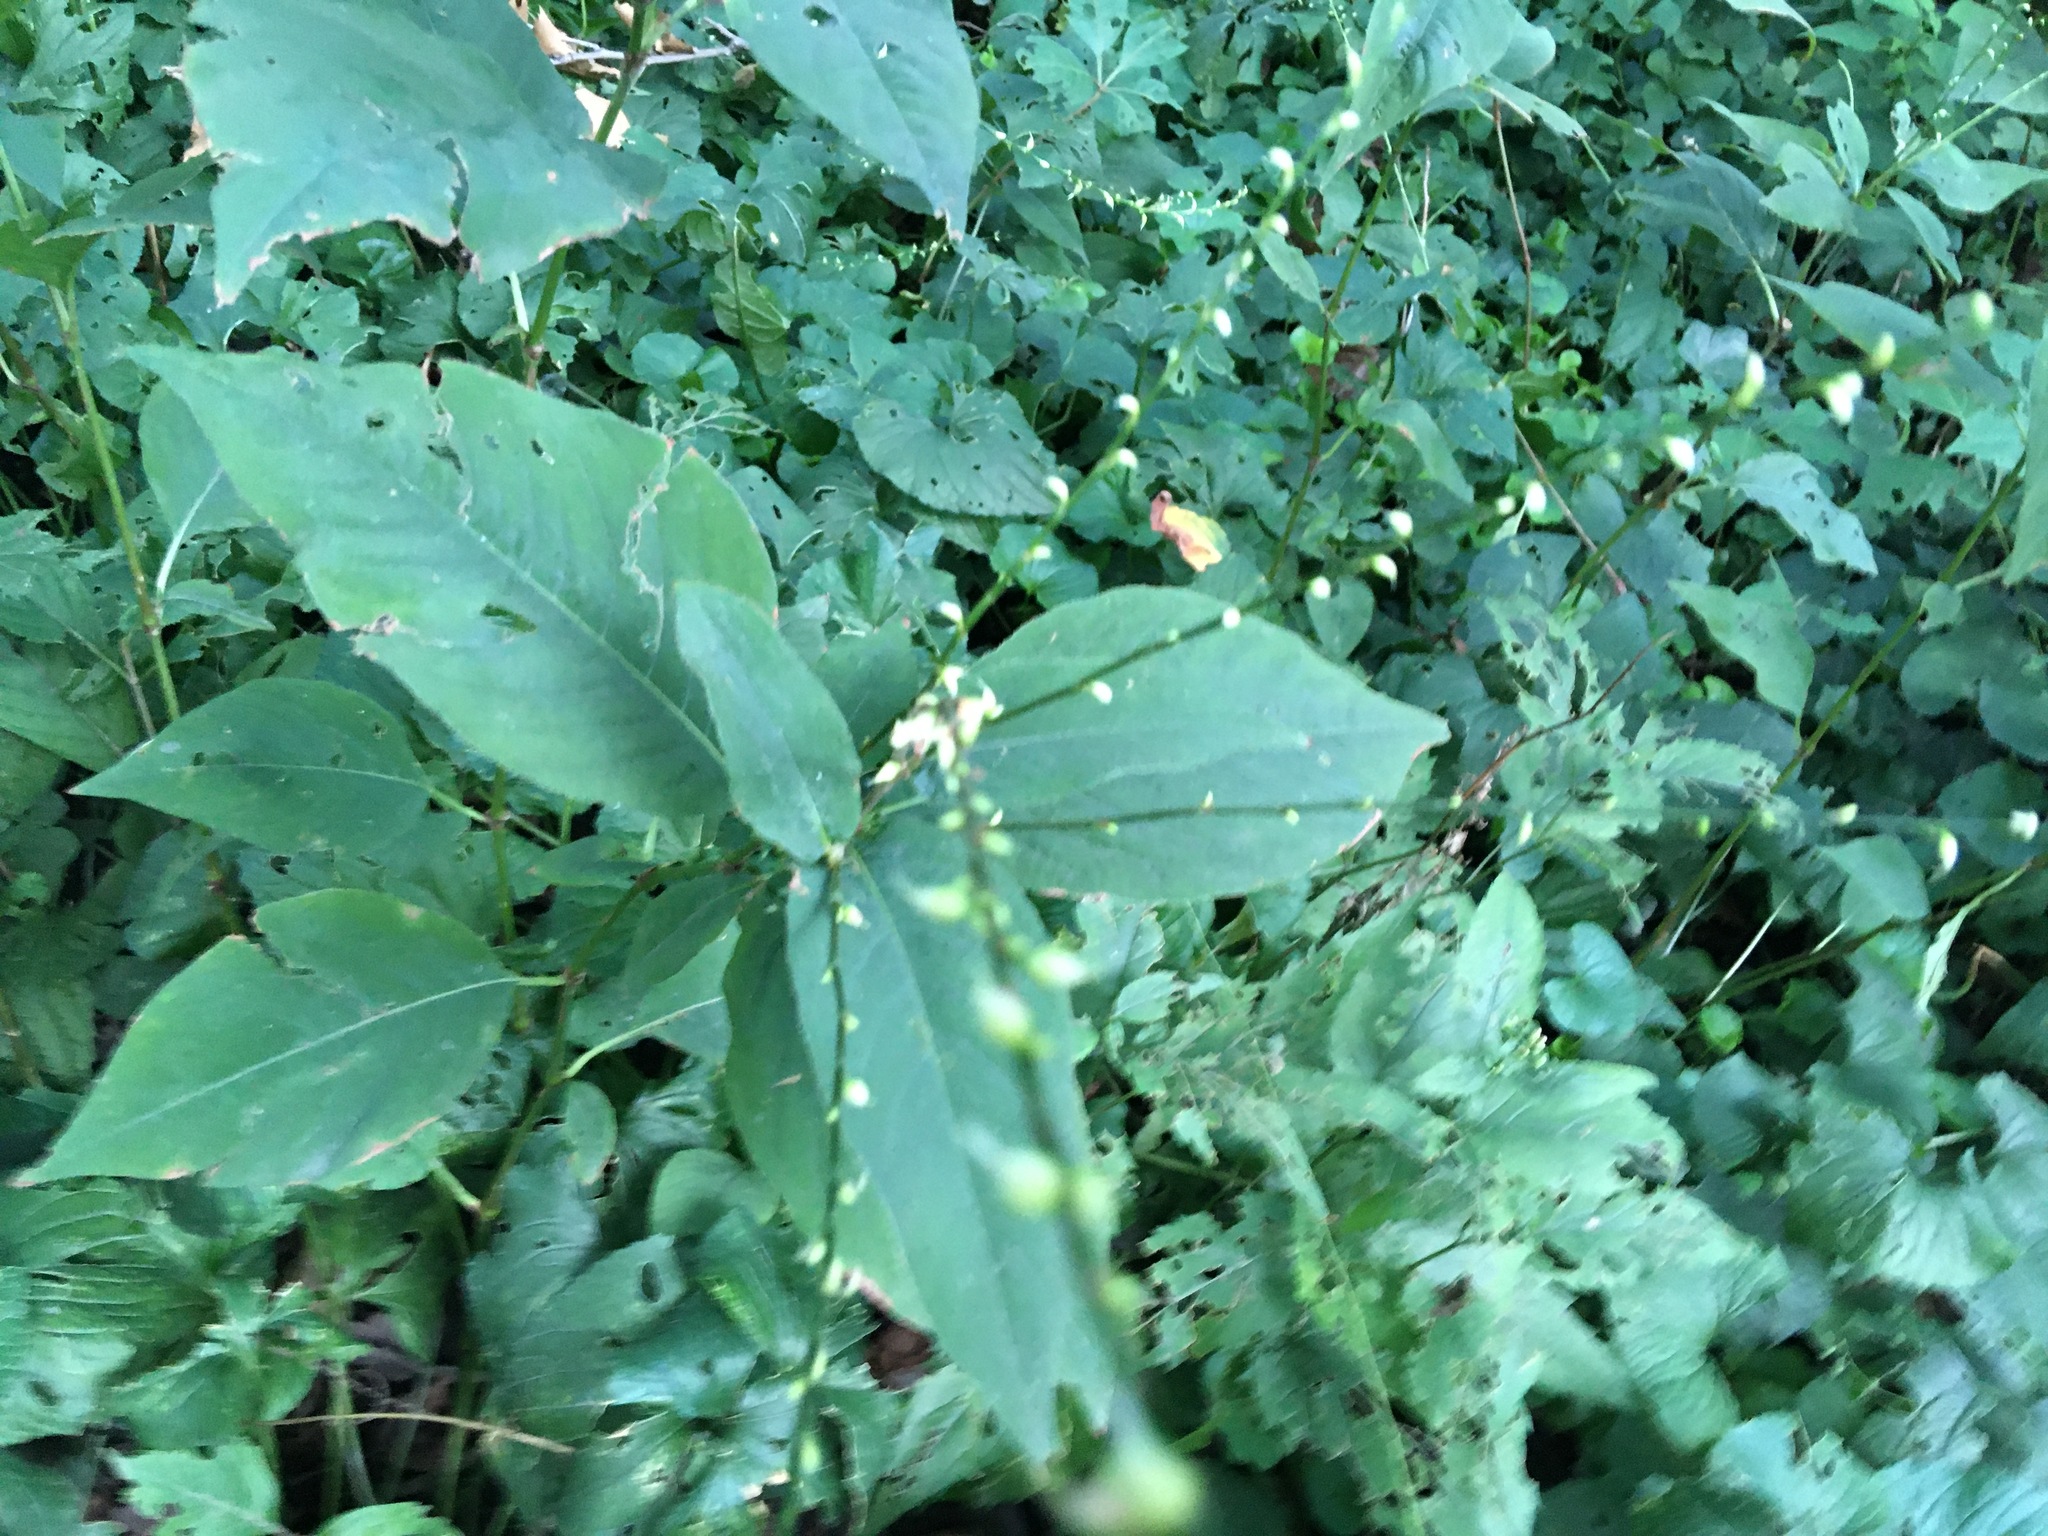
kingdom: Plantae
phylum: Tracheophyta
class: Magnoliopsida
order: Caryophyllales
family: Polygonaceae
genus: Persicaria
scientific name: Persicaria virginiana
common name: Jumpseed
